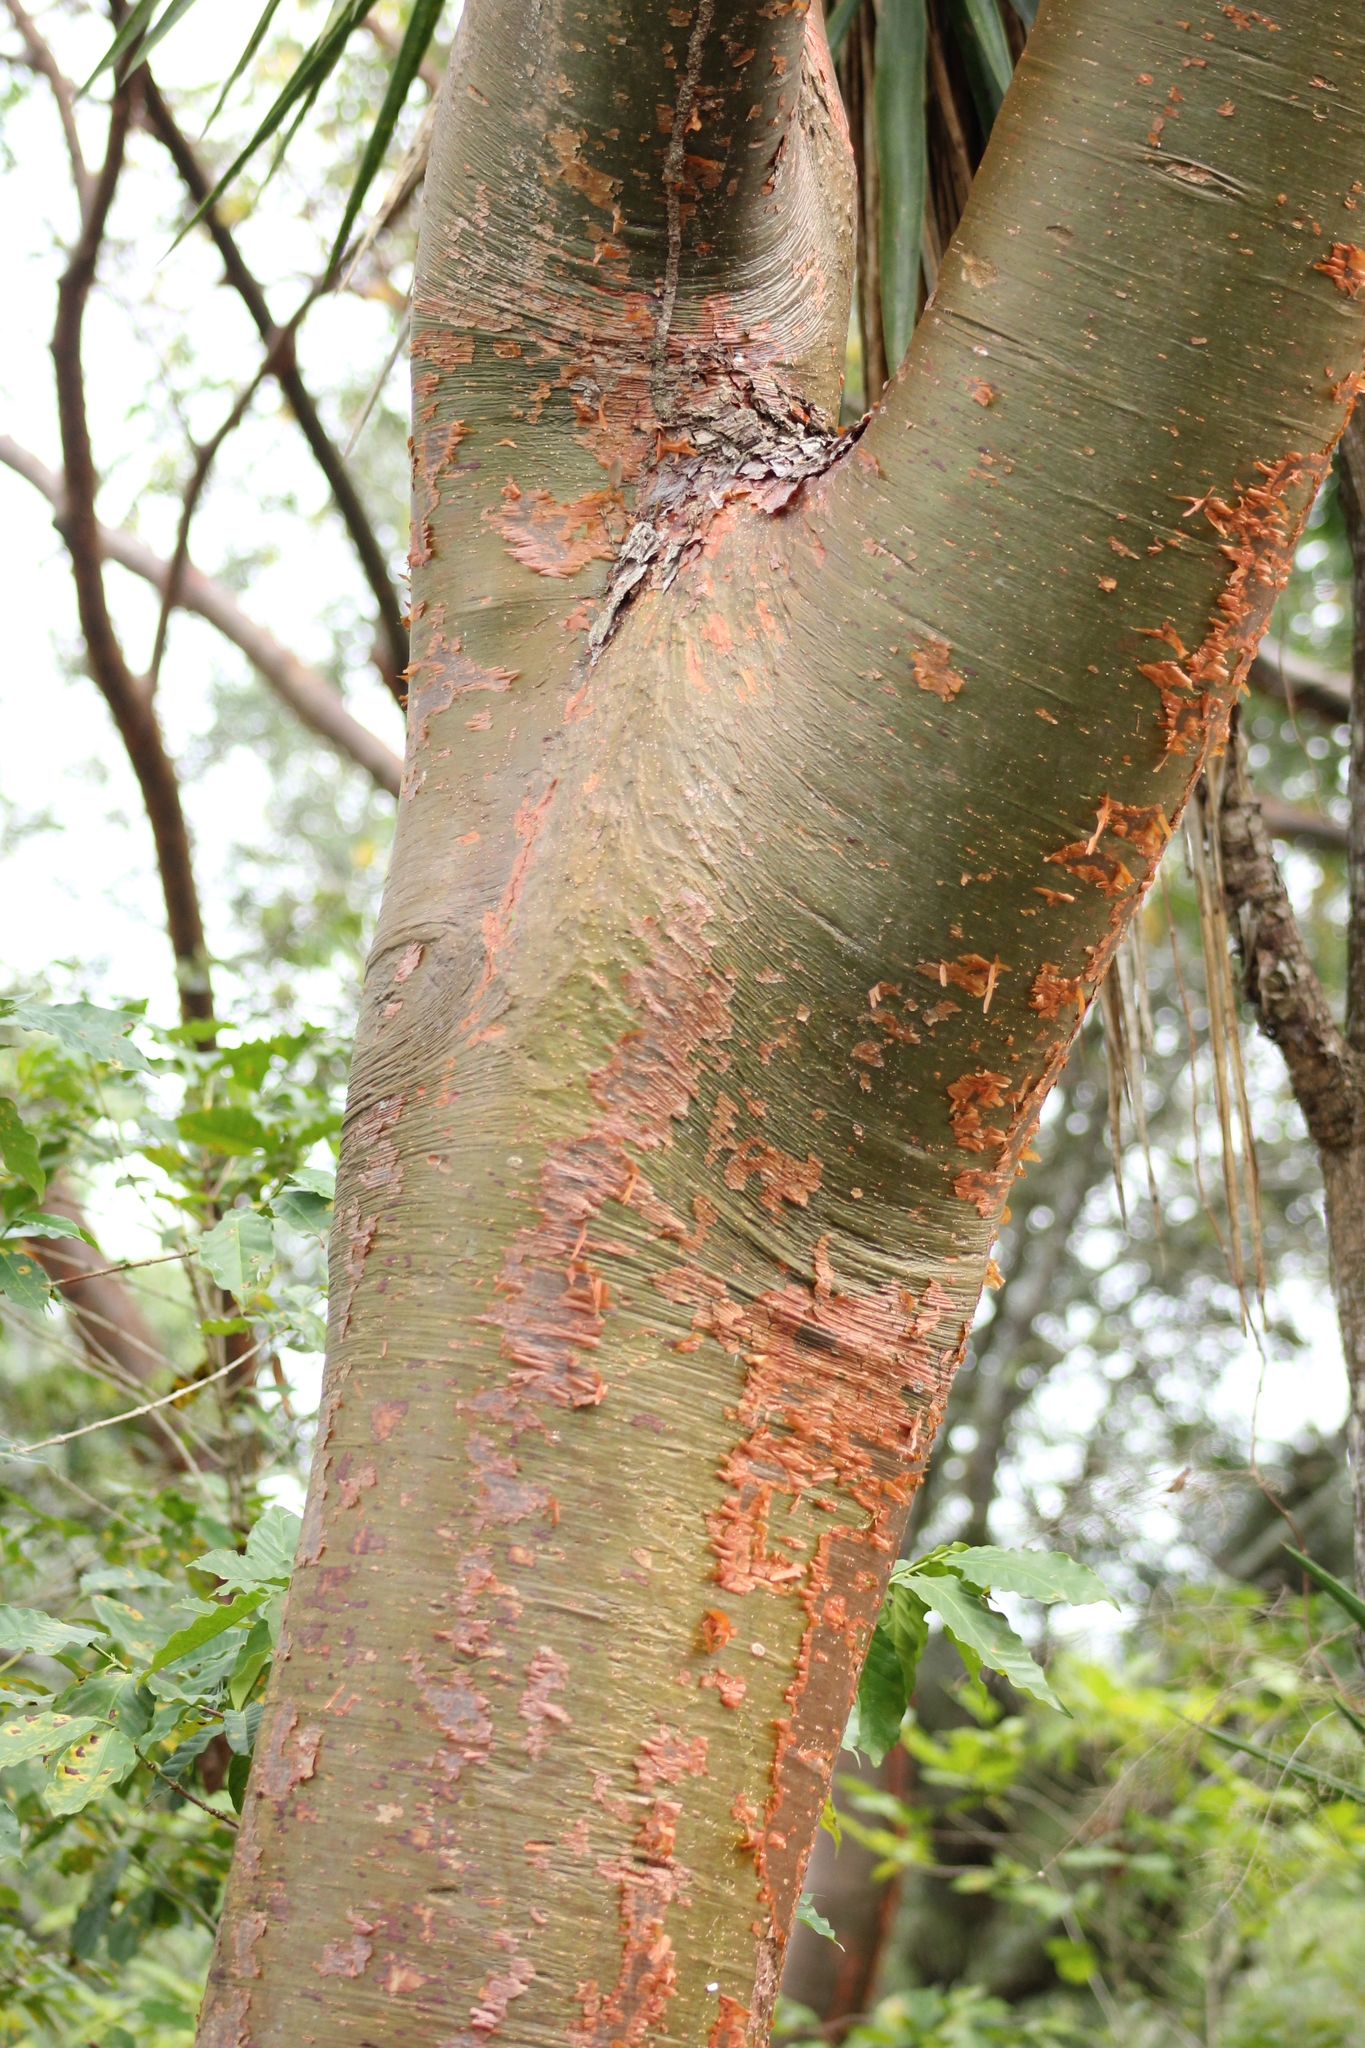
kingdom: Plantae
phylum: Tracheophyta
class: Magnoliopsida
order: Sapindales
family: Burseraceae
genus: Bursera
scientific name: Bursera simaruba
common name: Turpentine tree
